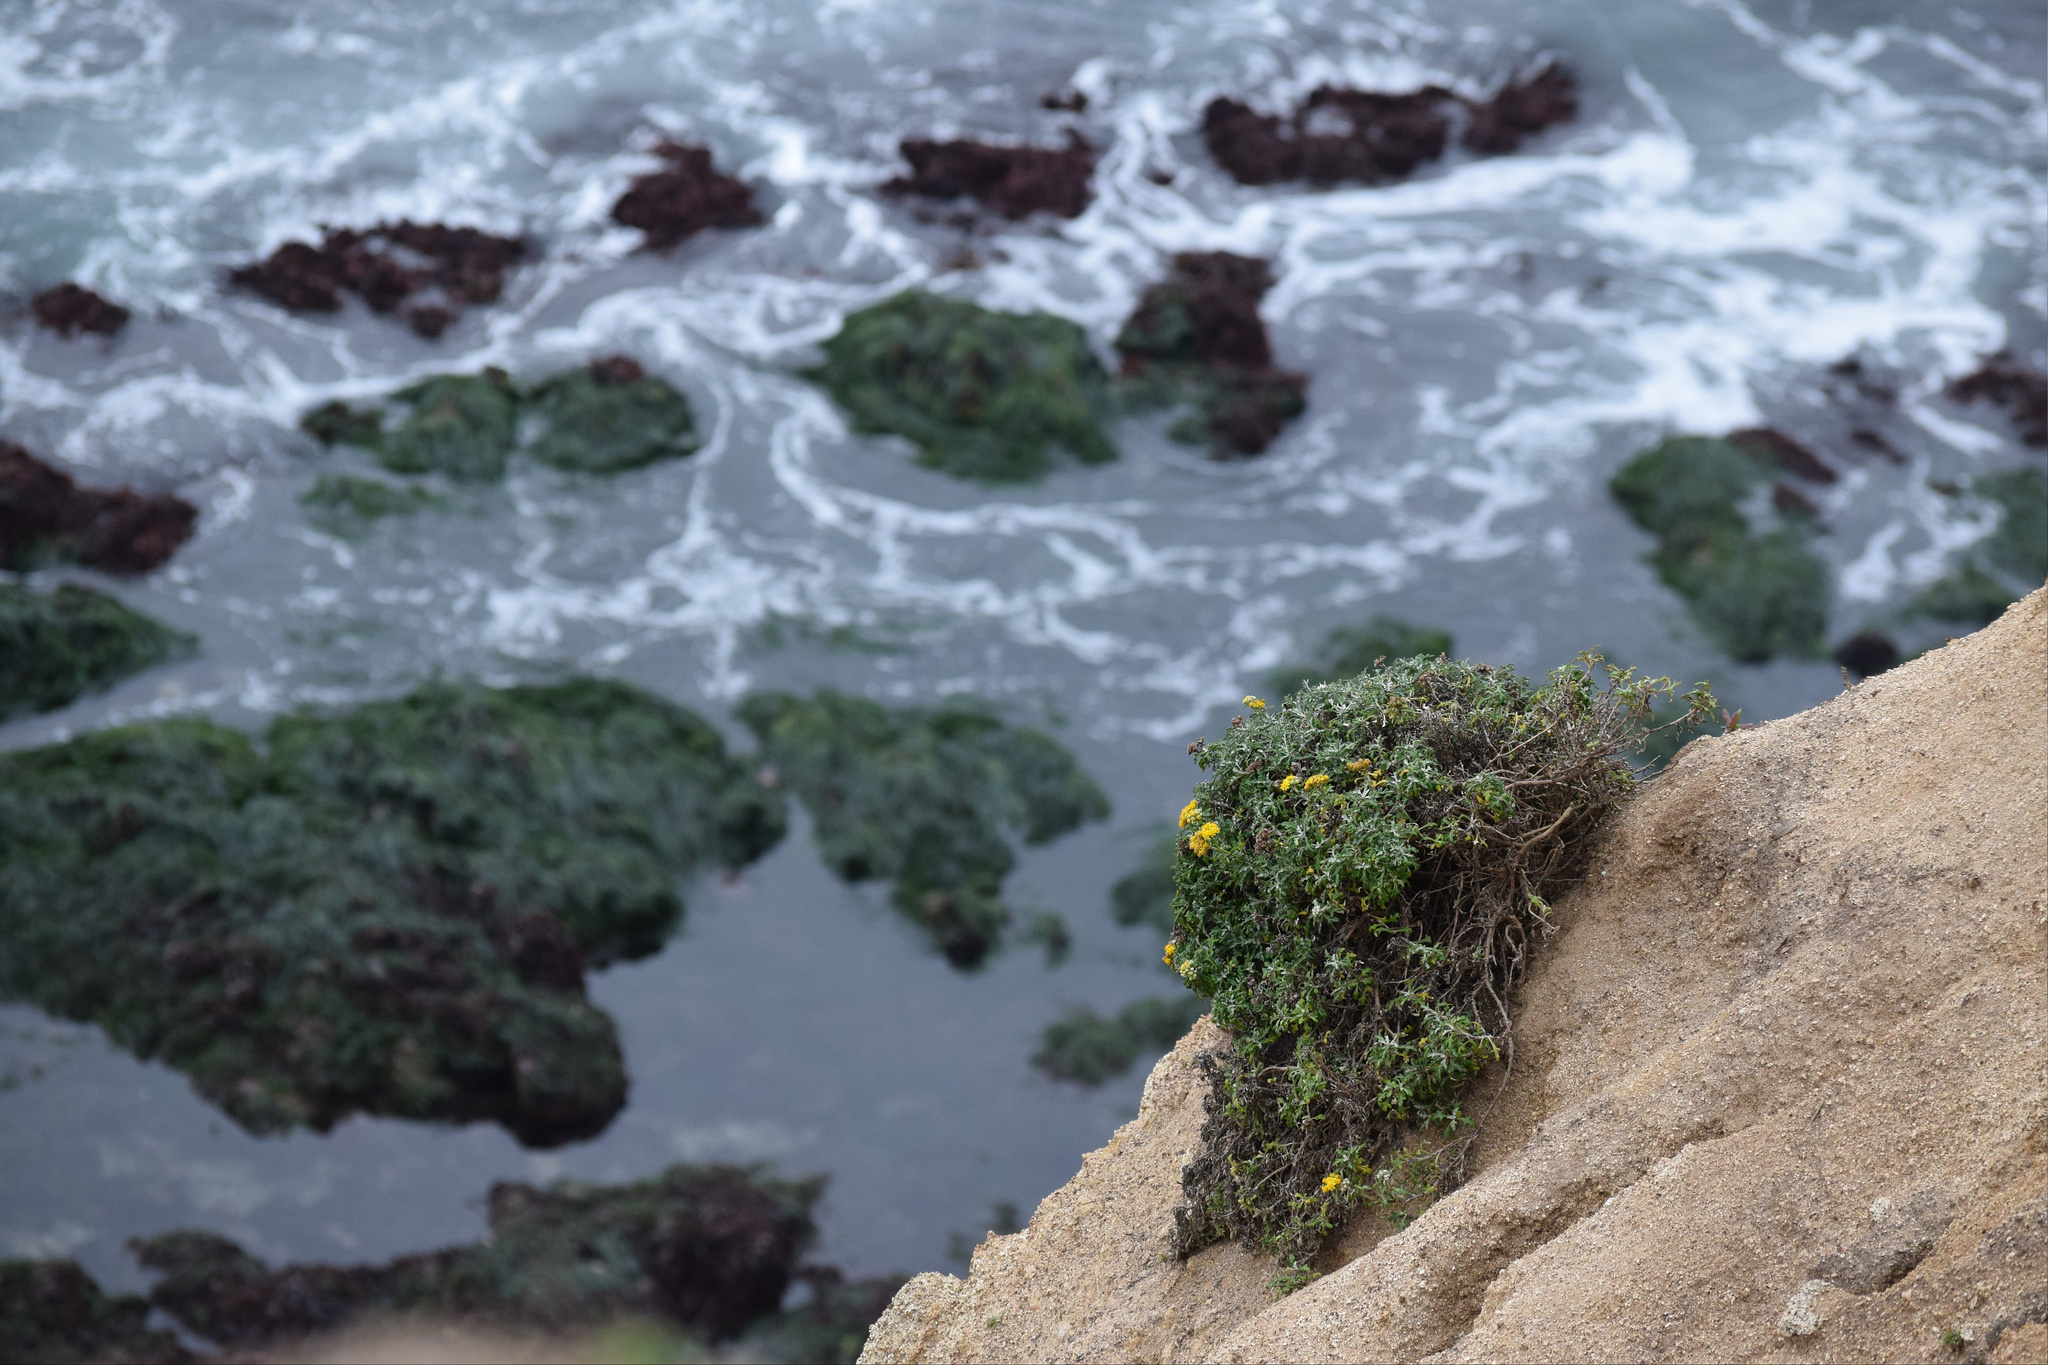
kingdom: Plantae
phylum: Tracheophyta
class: Magnoliopsida
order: Asterales
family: Asteraceae
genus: Eriophyllum
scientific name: Eriophyllum staechadifolium
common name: Lizardtail
